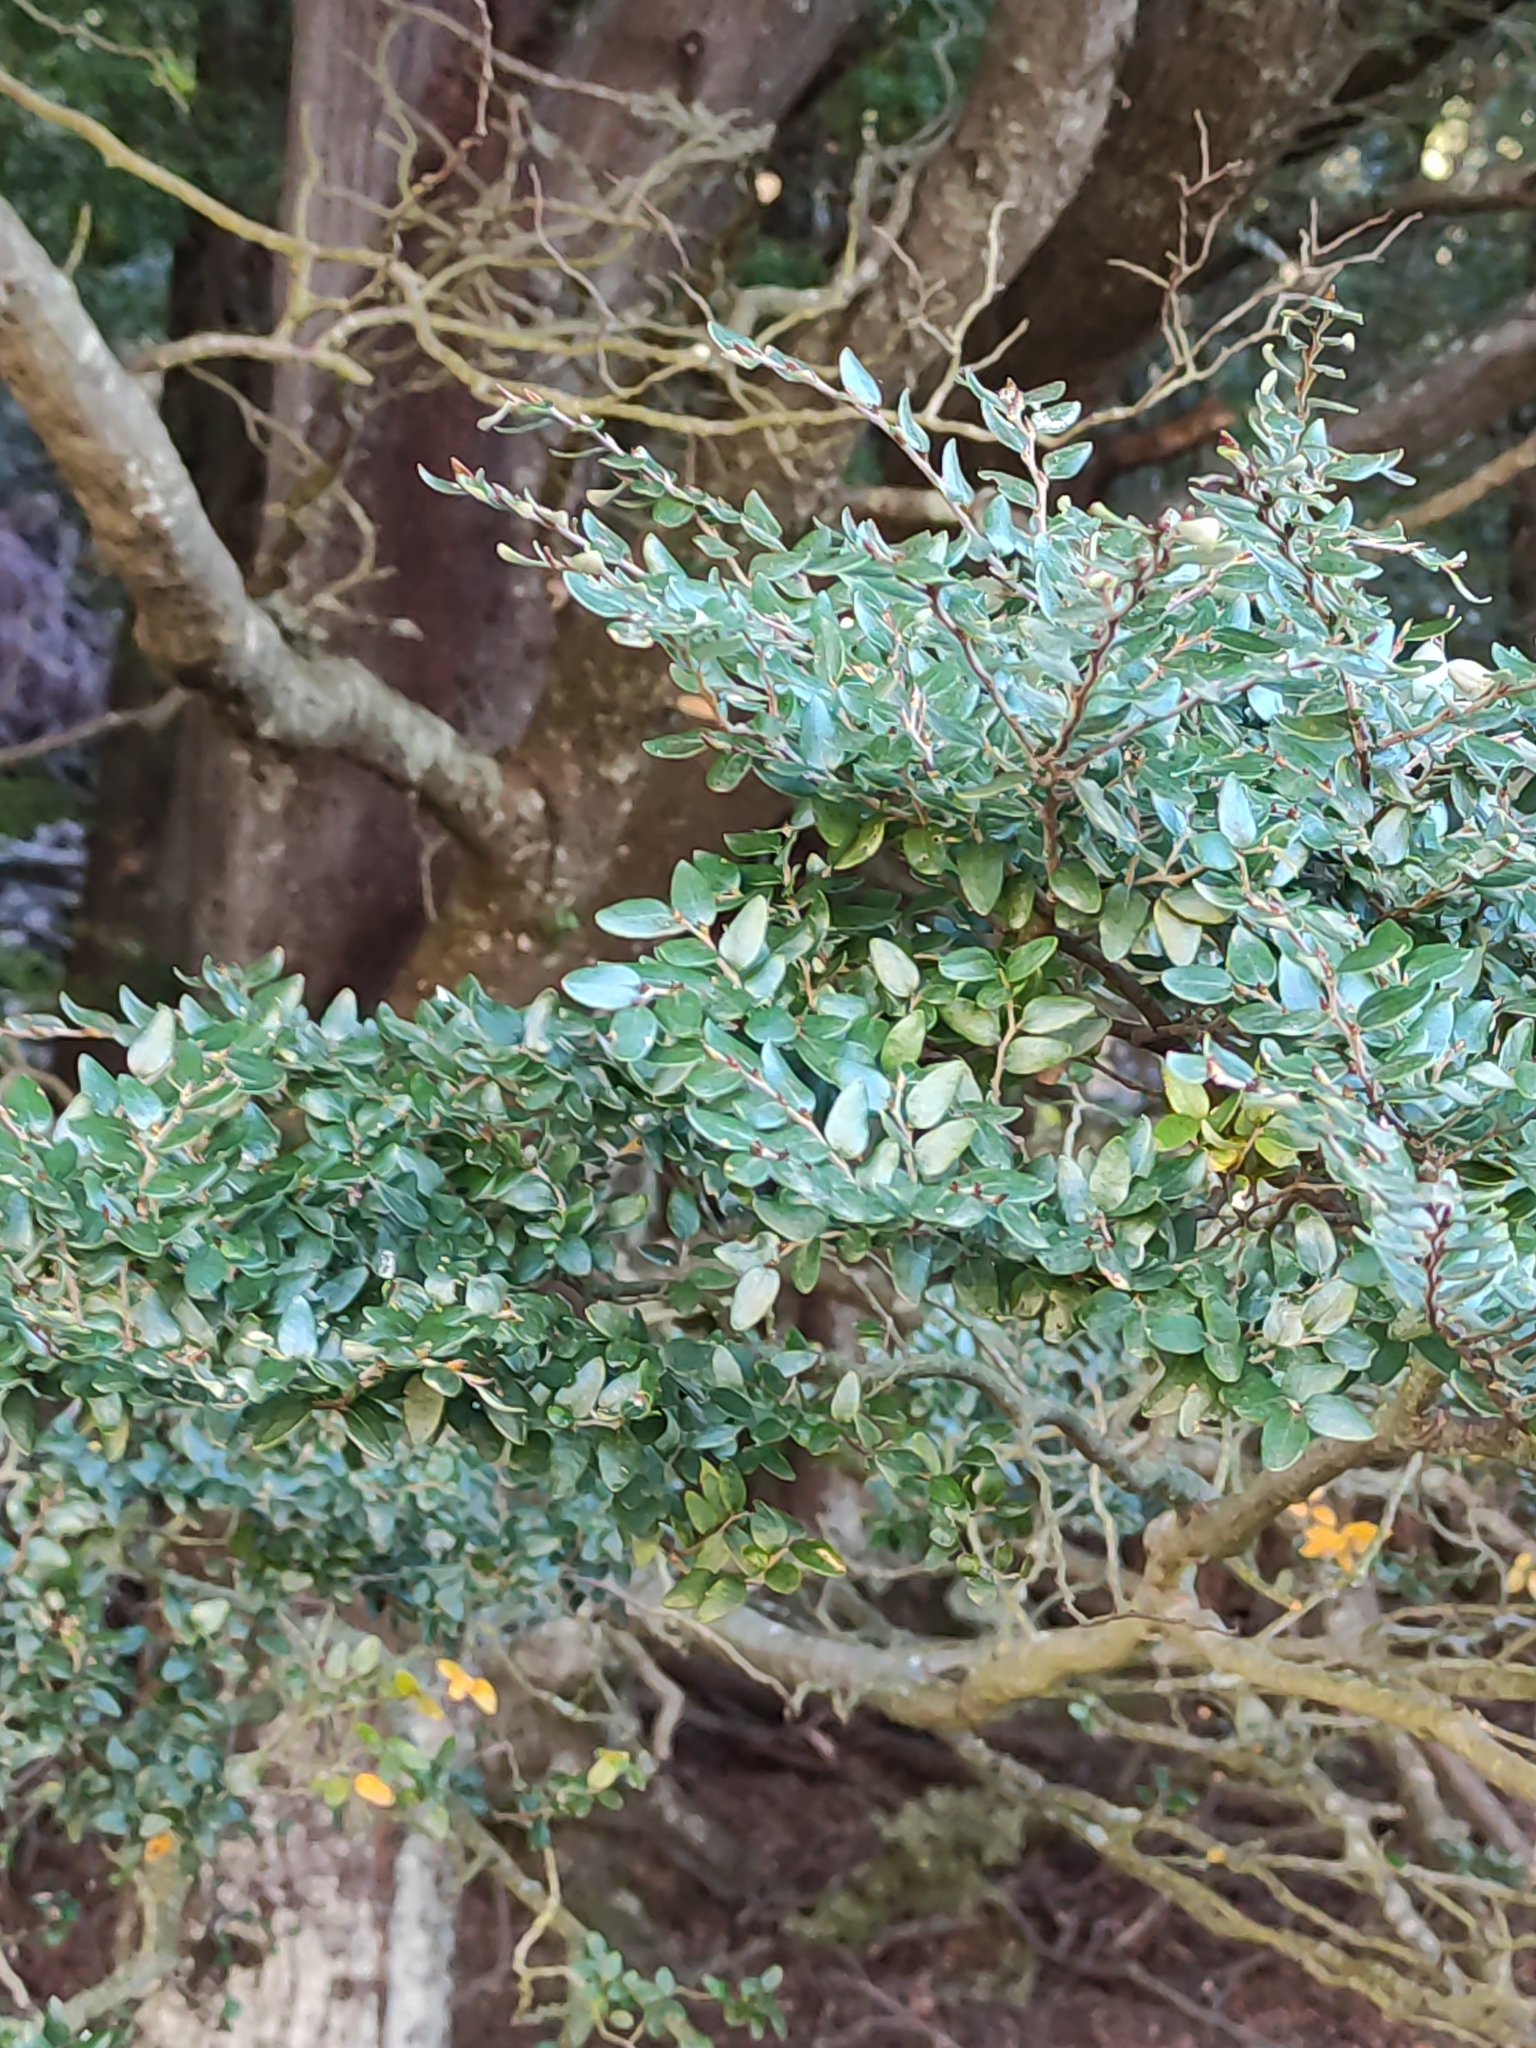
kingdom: Plantae
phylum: Tracheophyta
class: Magnoliopsida
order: Fagales
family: Nothofagaceae
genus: Nothofagus
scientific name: Nothofagus cliffortioides
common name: Mountain beech
